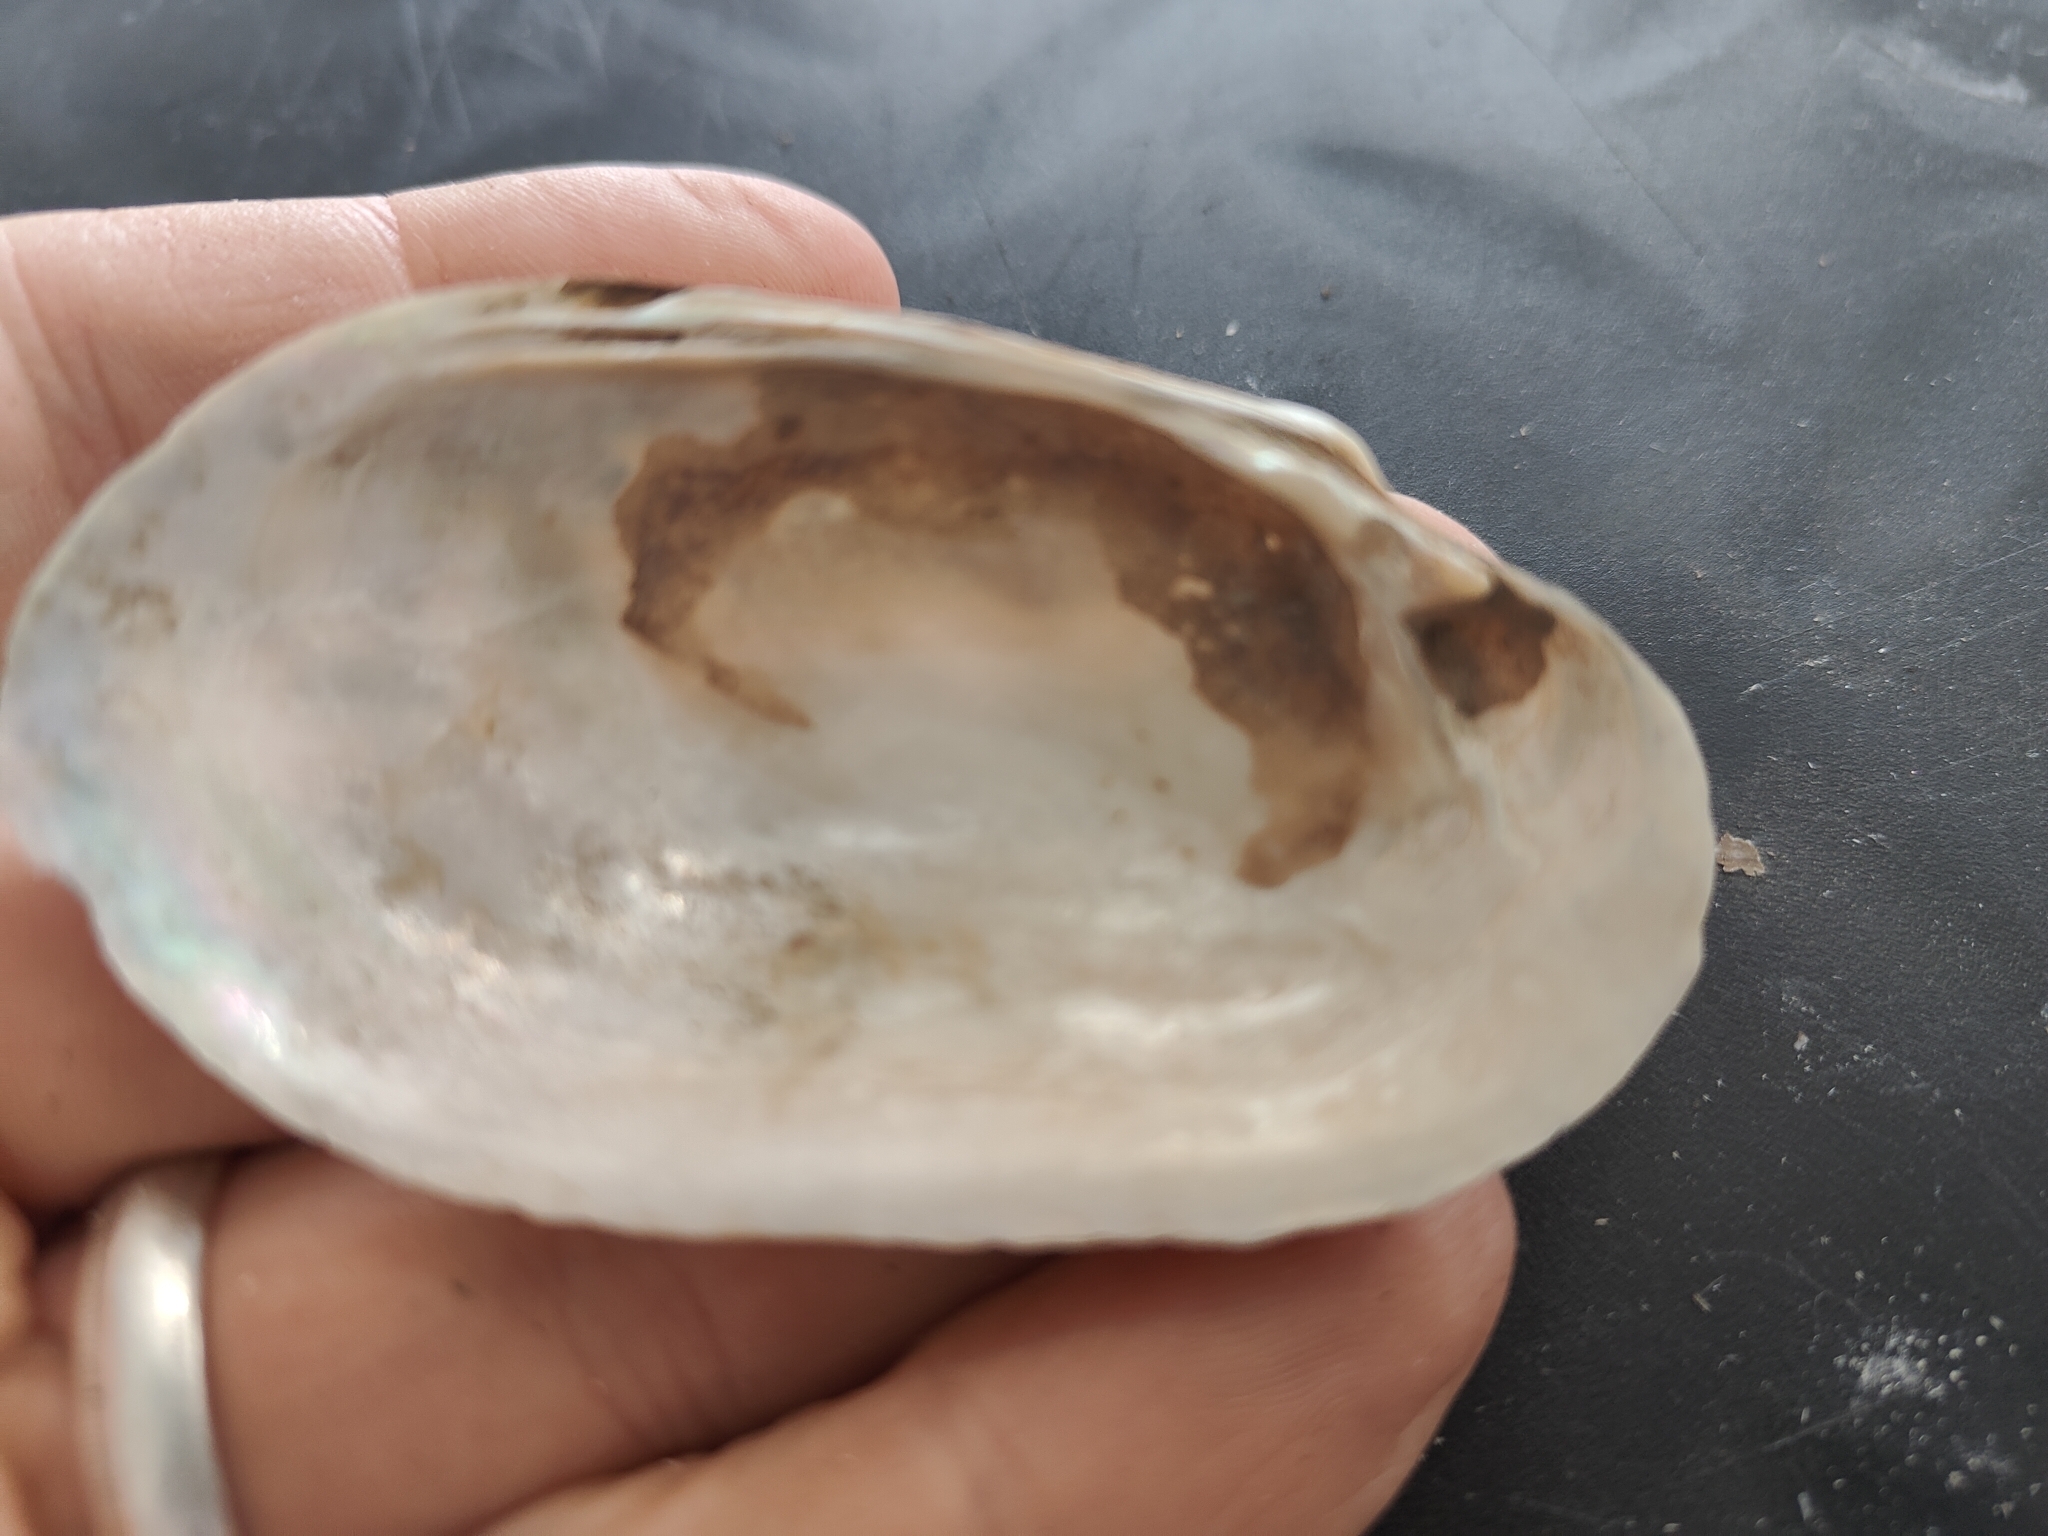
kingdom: Animalia
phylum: Mollusca
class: Bivalvia
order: Unionida
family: Unionidae
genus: Lampsilis
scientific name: Lampsilis siliquoidea
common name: Fatmucket
